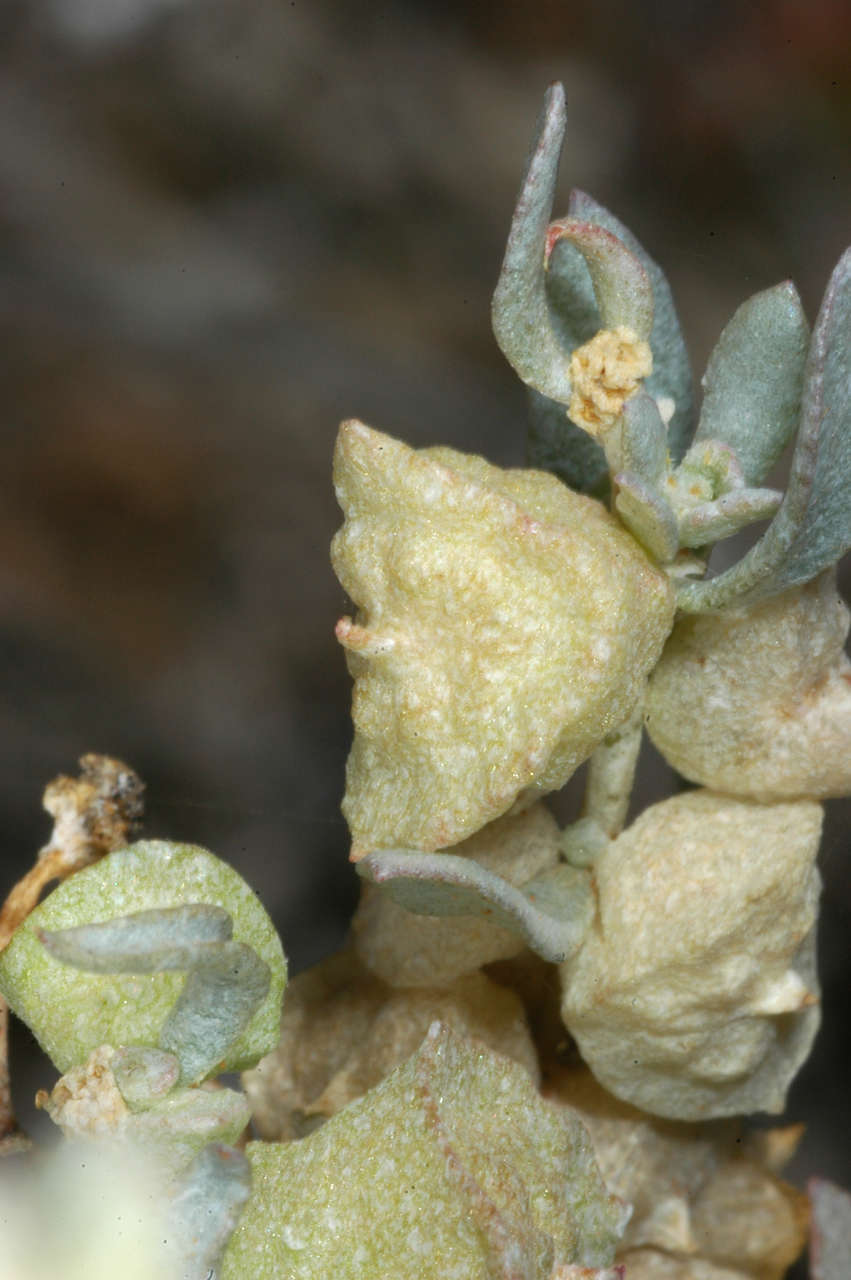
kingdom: Plantae
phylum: Tracheophyta
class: Magnoliopsida
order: Caryophyllales
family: Amaranthaceae
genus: Atriplex
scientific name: Atriplex lindleyi
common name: Lindley's saltbush
